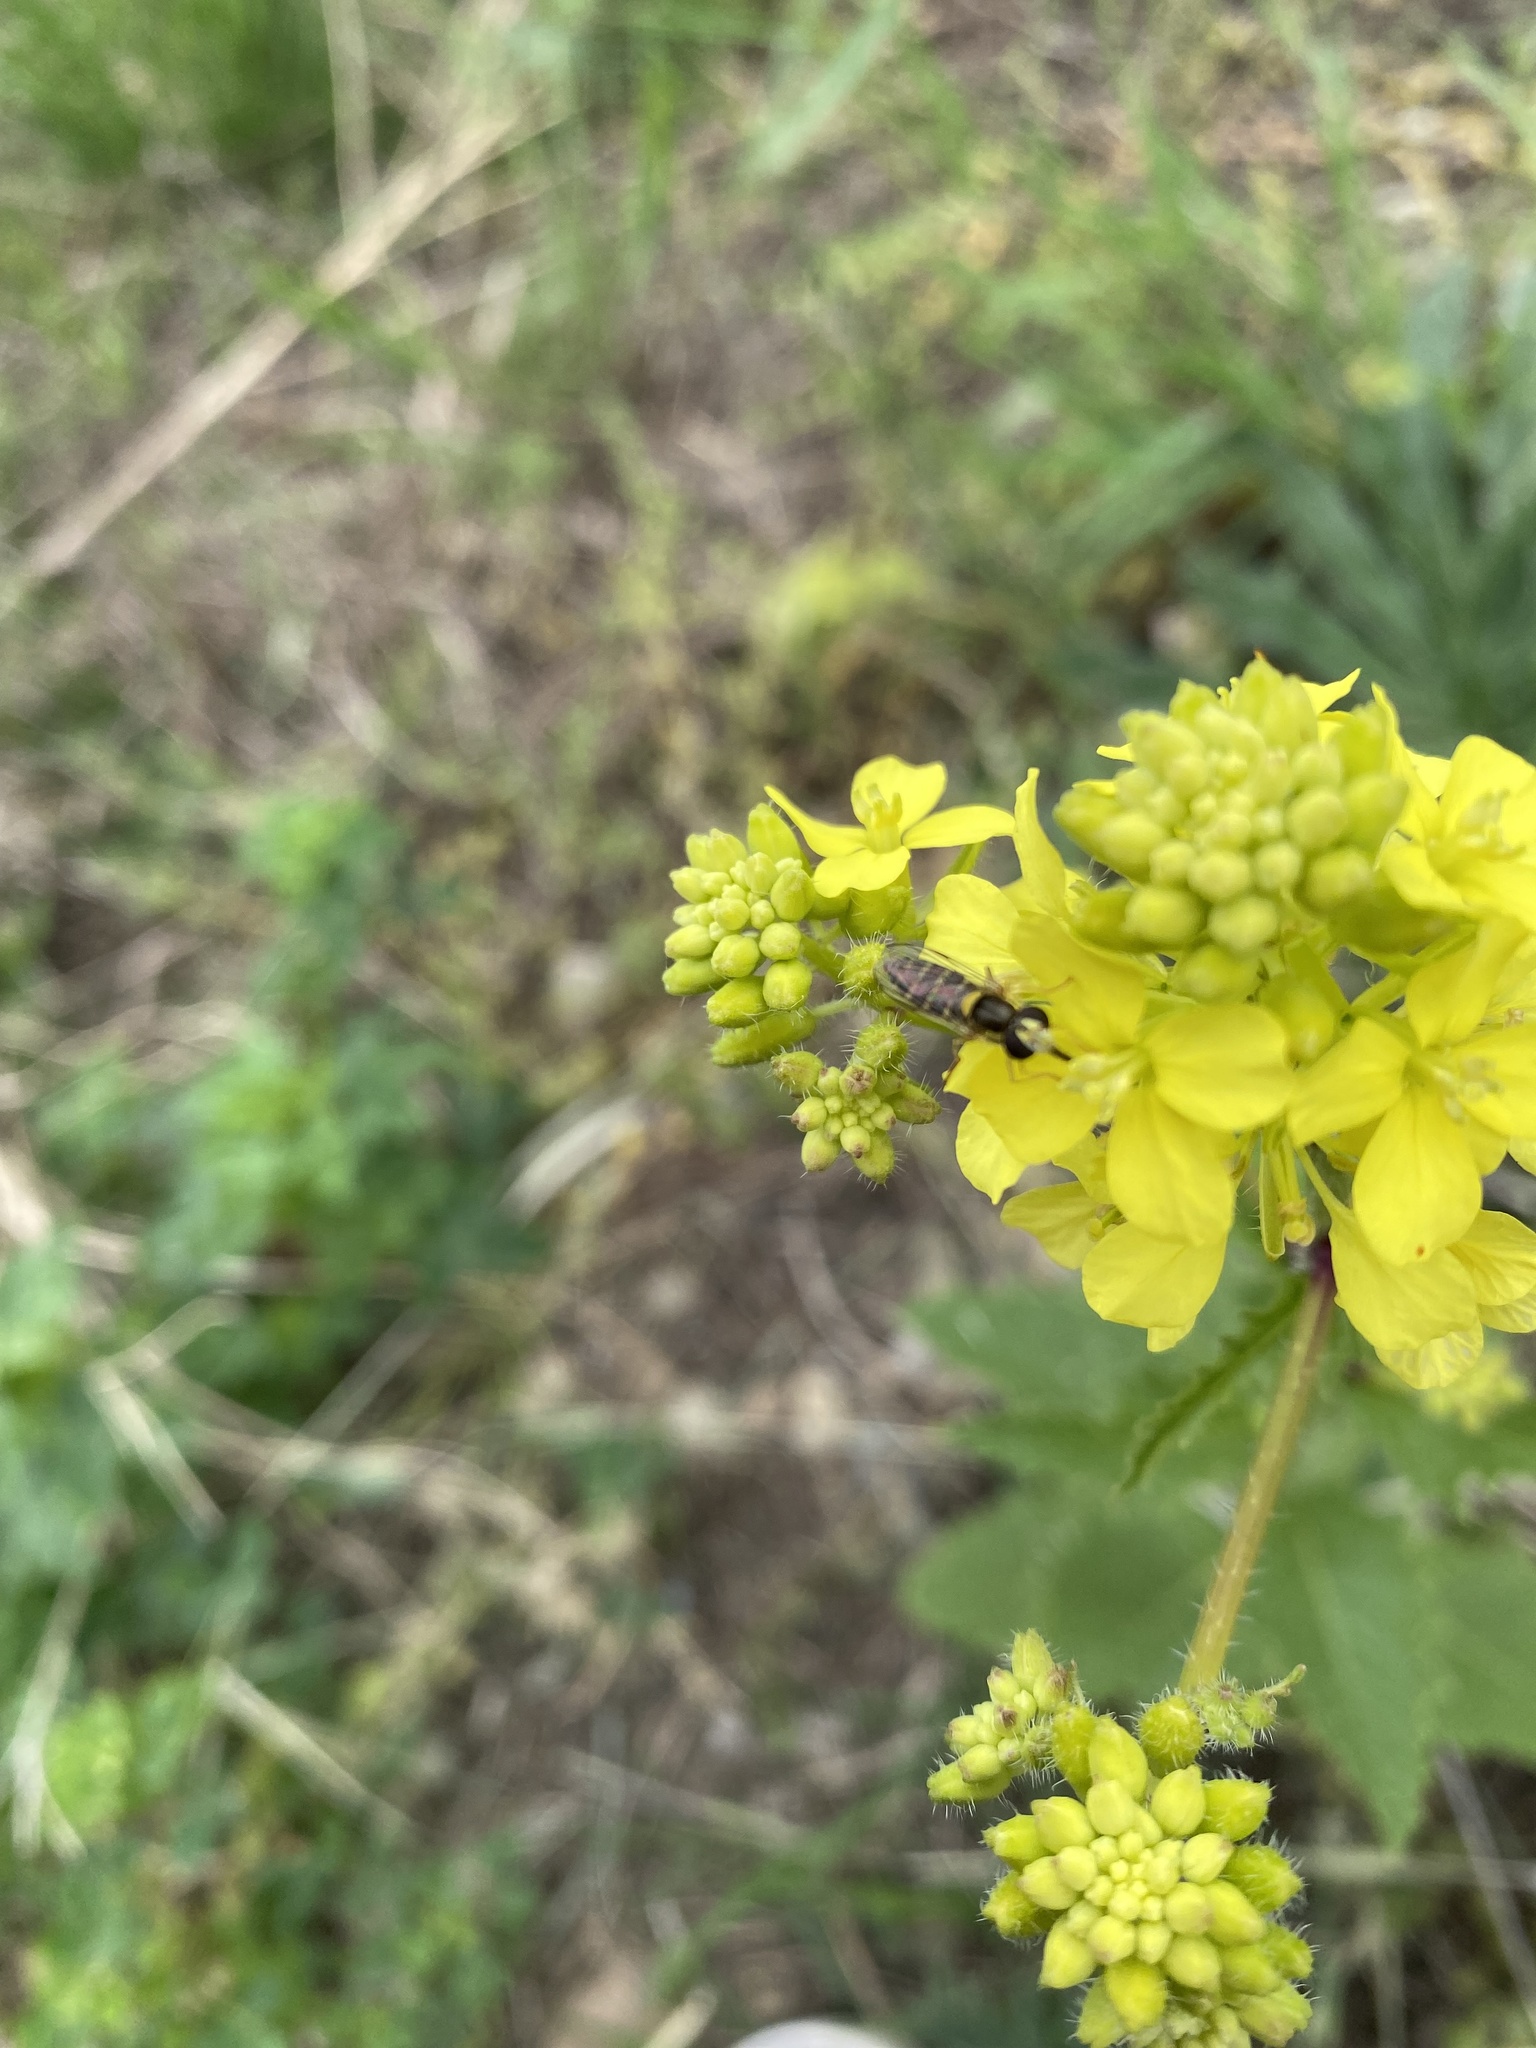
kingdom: Animalia
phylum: Arthropoda
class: Insecta
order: Diptera
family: Syrphidae
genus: Sphaerophoria
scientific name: Sphaerophoria
